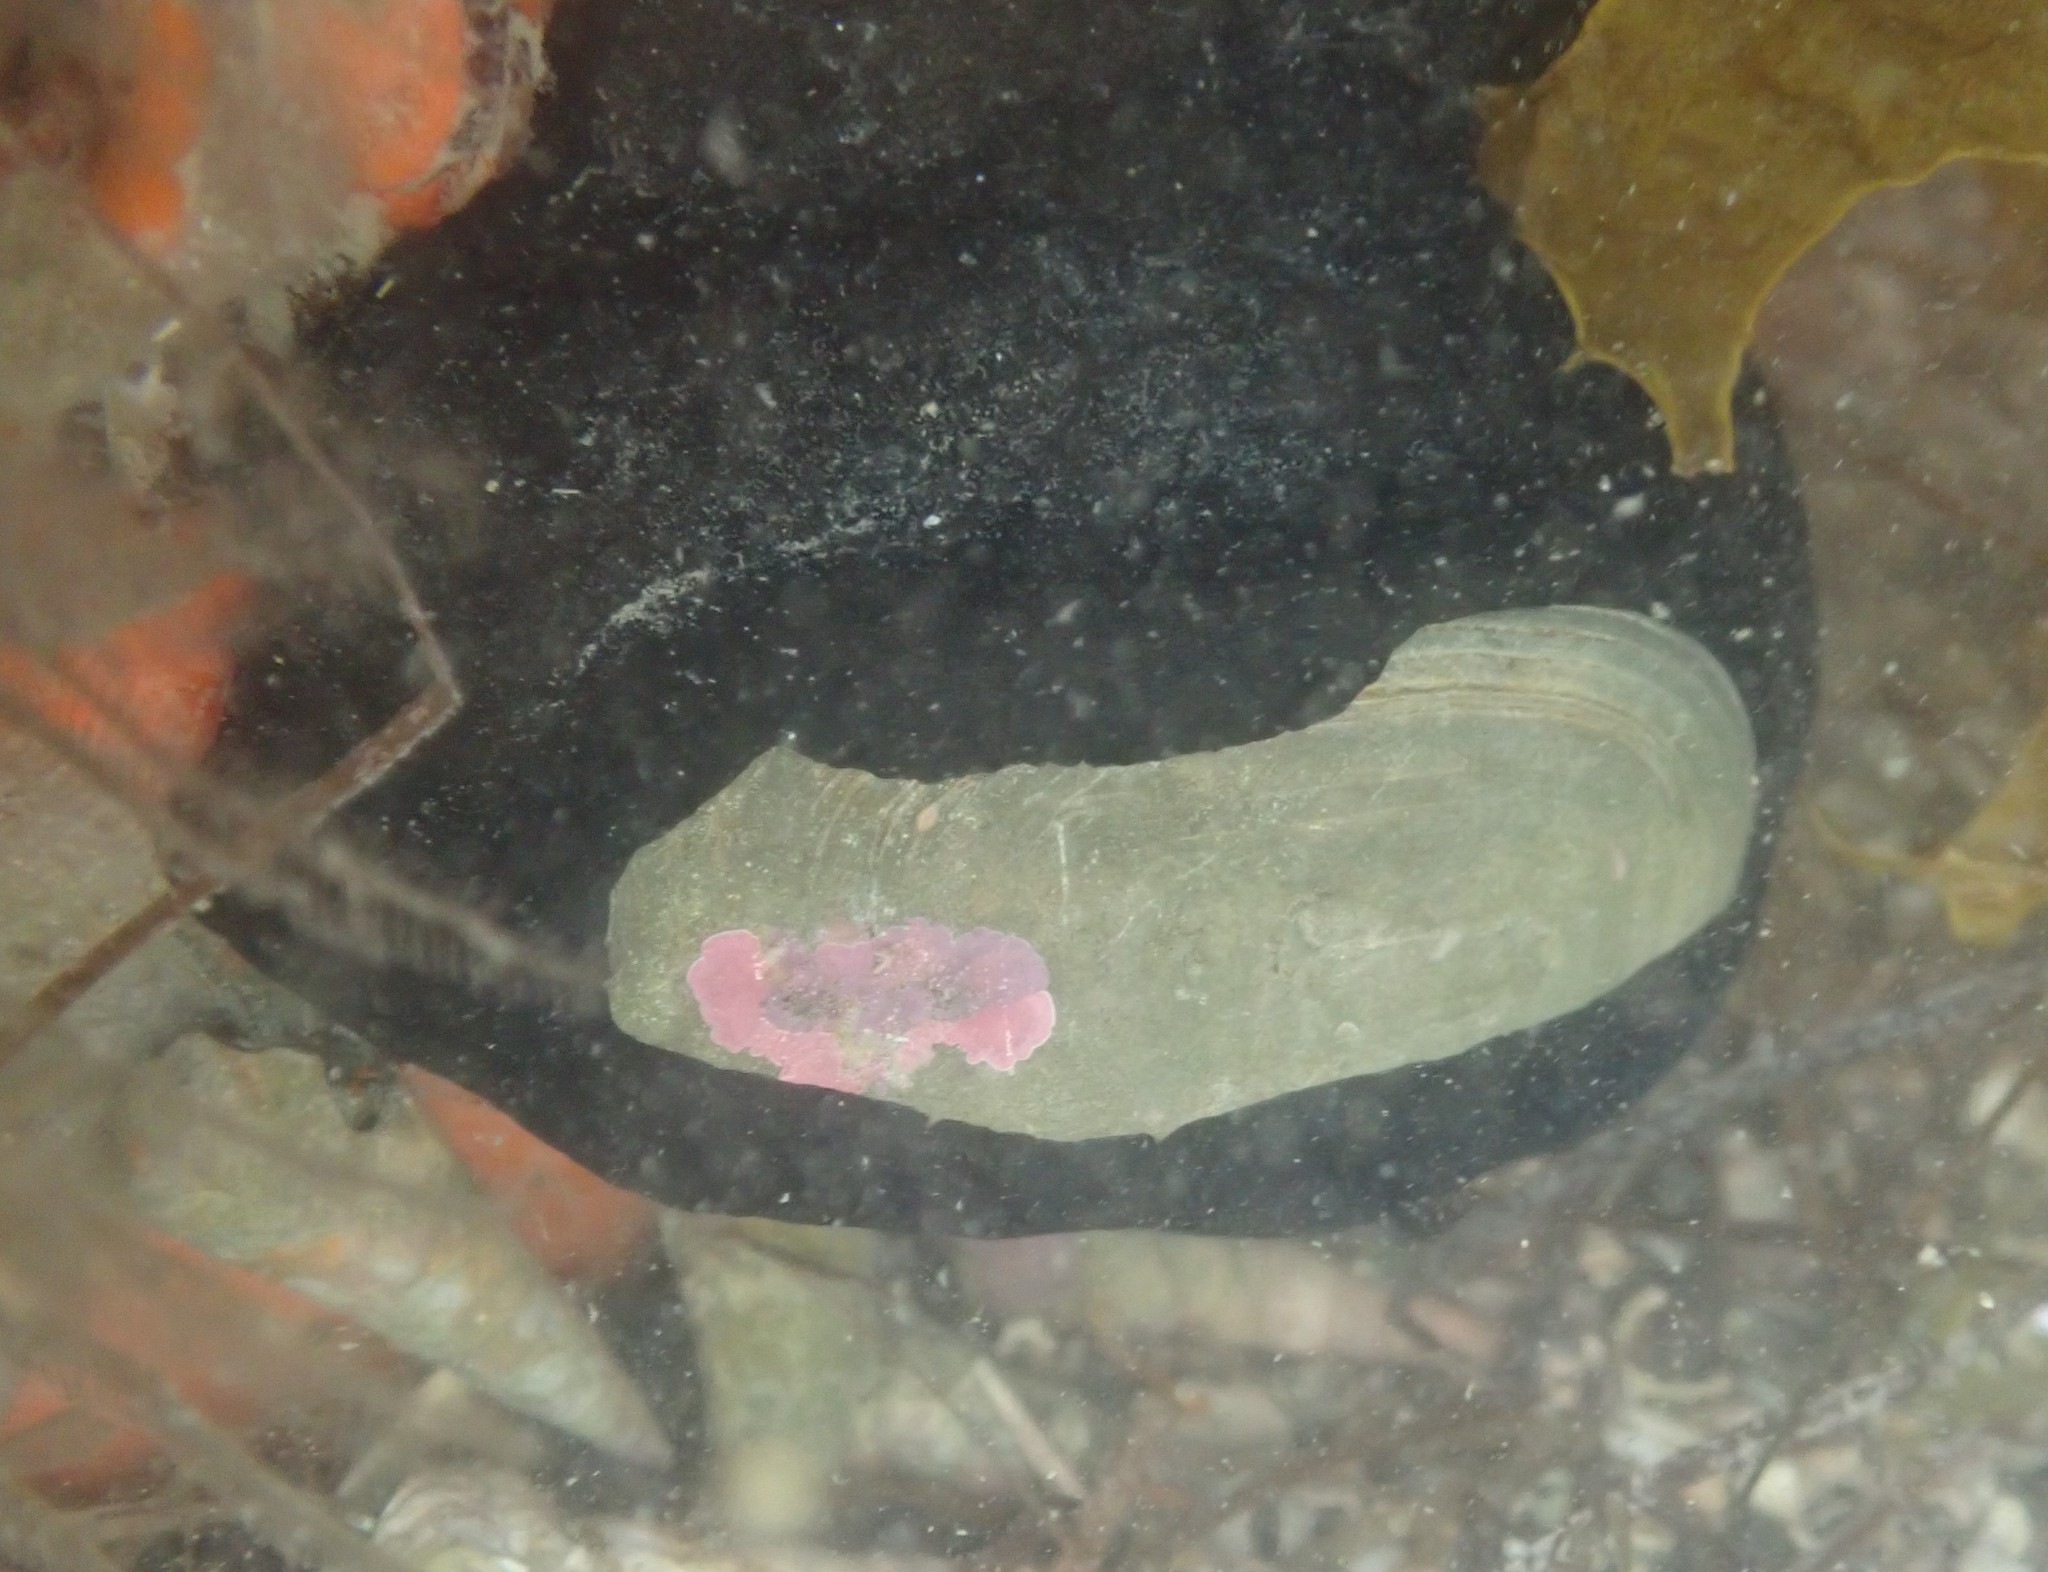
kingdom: Animalia
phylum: Mollusca
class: Gastropoda
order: Lepetellida
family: Fissurellidae
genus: Scutus
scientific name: Scutus breviculus
